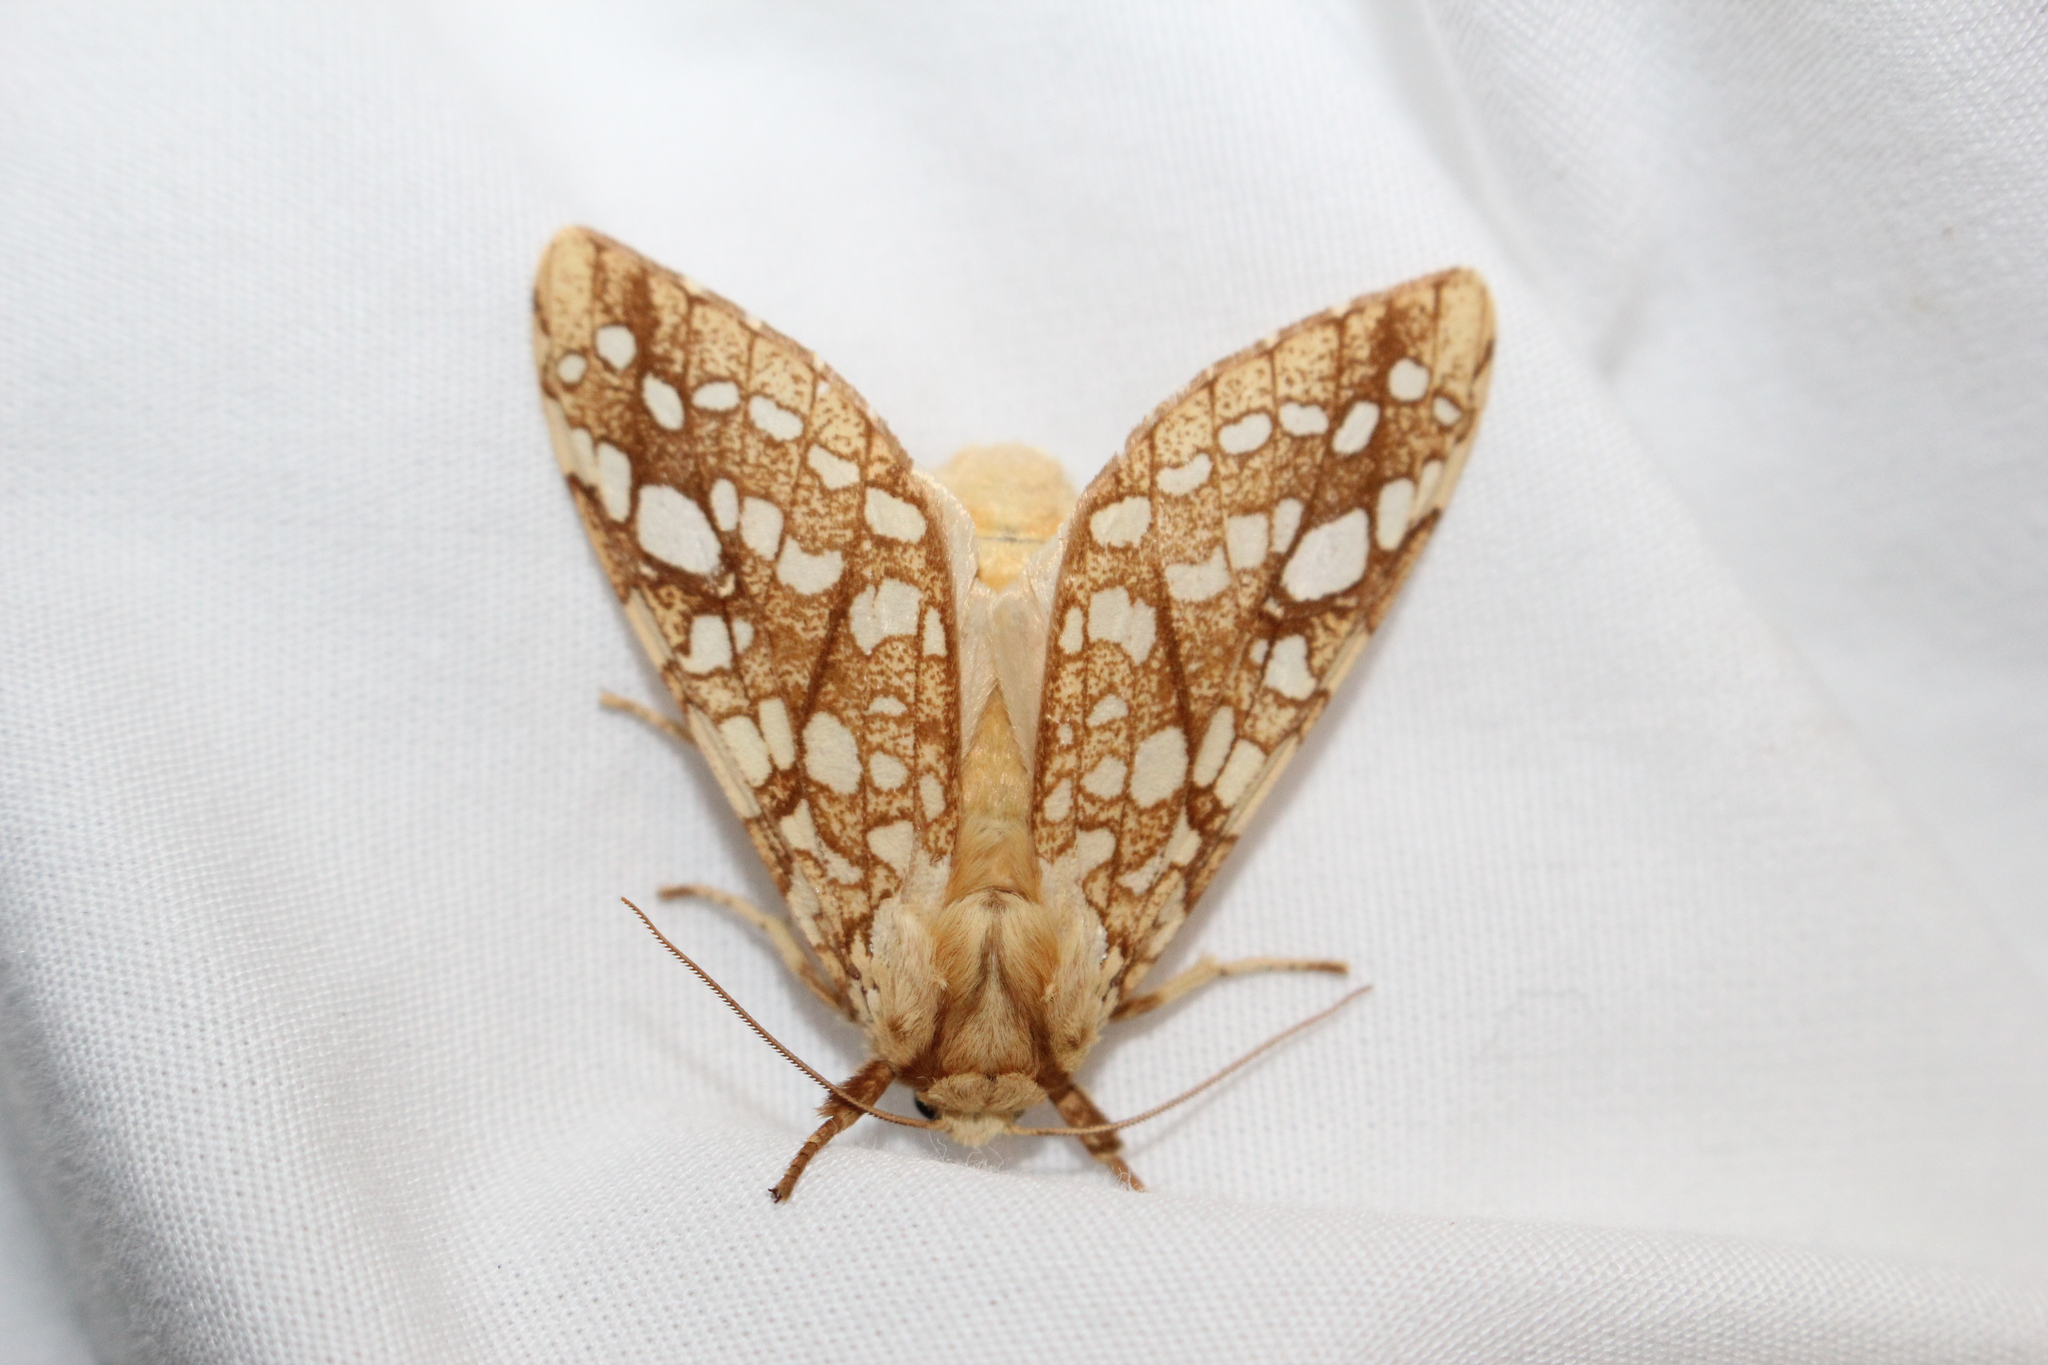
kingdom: Animalia
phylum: Arthropoda
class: Insecta
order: Lepidoptera
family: Erebidae
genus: Lophocampa
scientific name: Lophocampa caryae
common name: Hickory tussock moth
